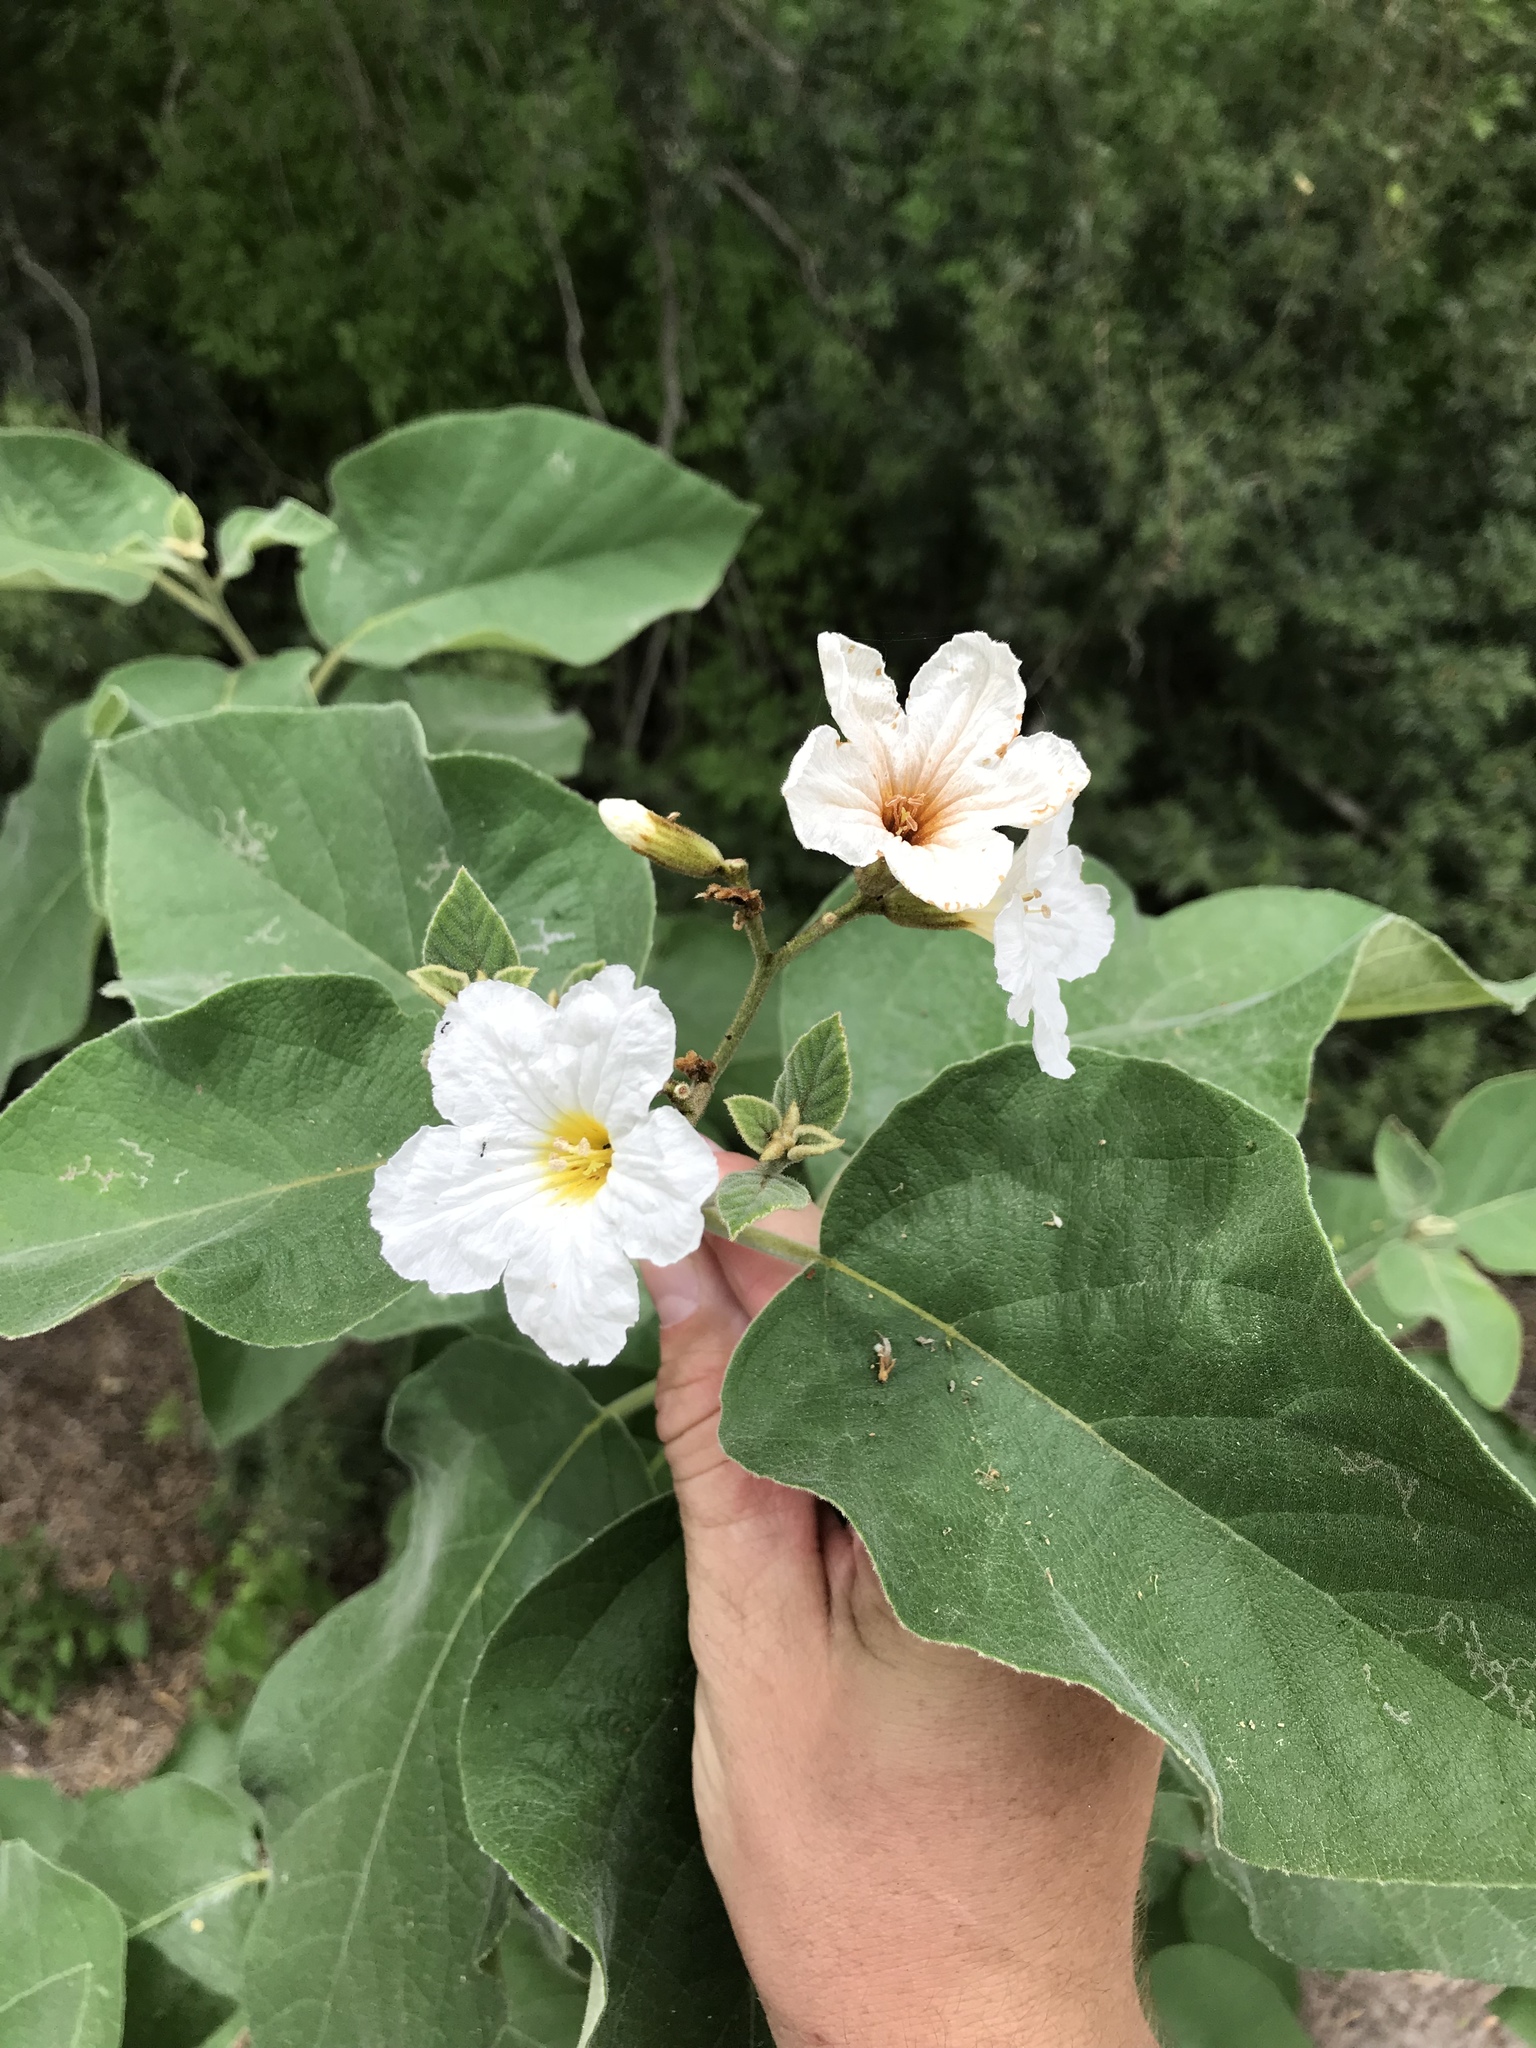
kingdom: Plantae
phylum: Tracheophyta
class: Magnoliopsida
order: Boraginales
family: Cordiaceae
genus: Cordia
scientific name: Cordia boissieri
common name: Mexican-olive
